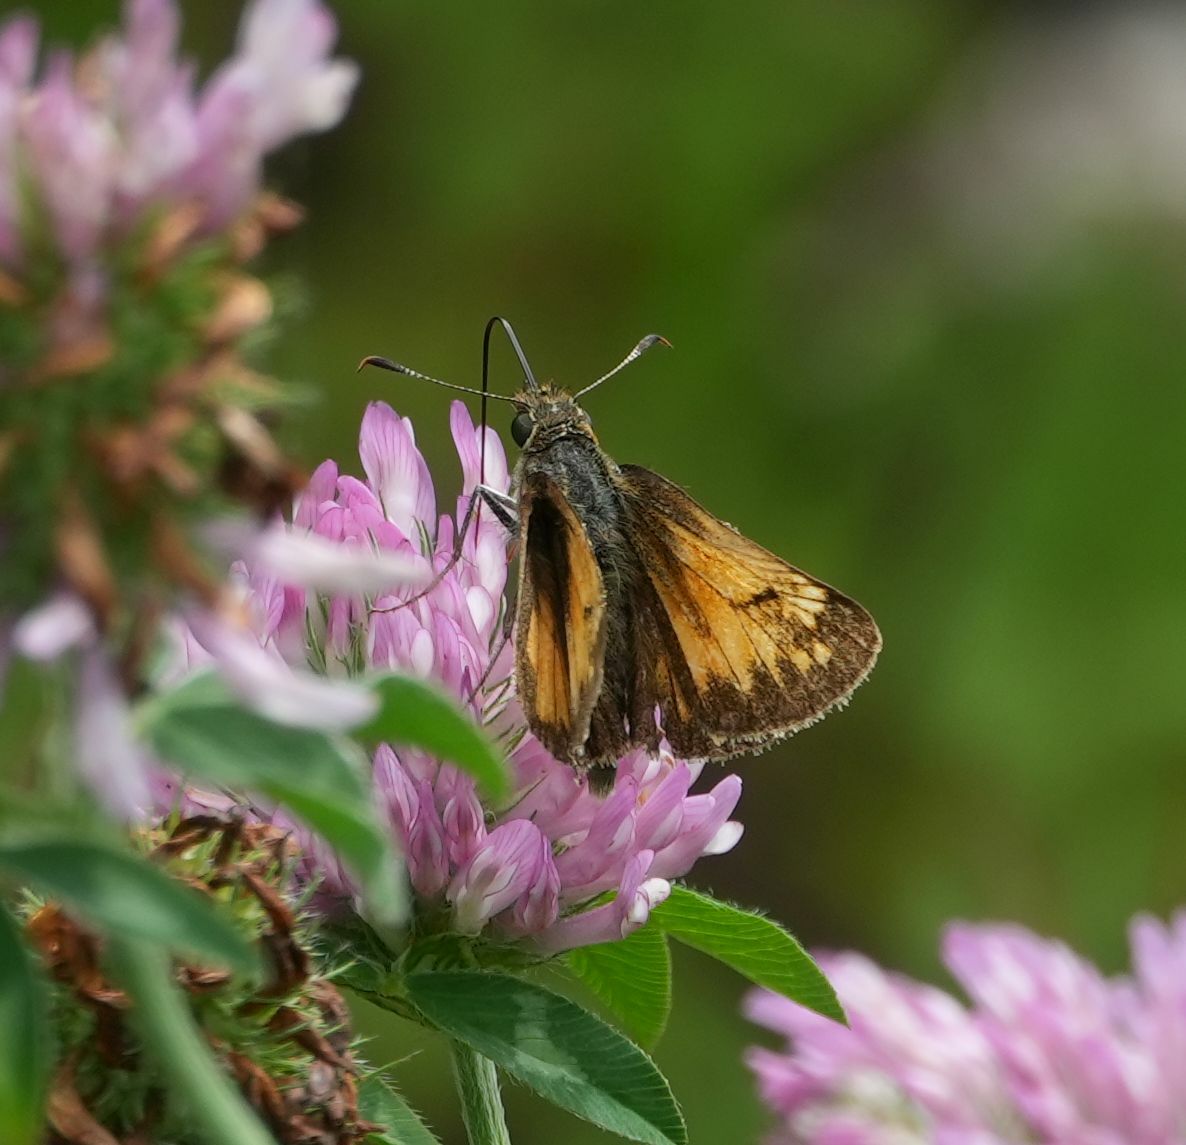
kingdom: Animalia
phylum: Arthropoda
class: Insecta
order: Lepidoptera
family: Hesperiidae
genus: Lon
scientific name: Lon hobomok
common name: Hobomok skipper
